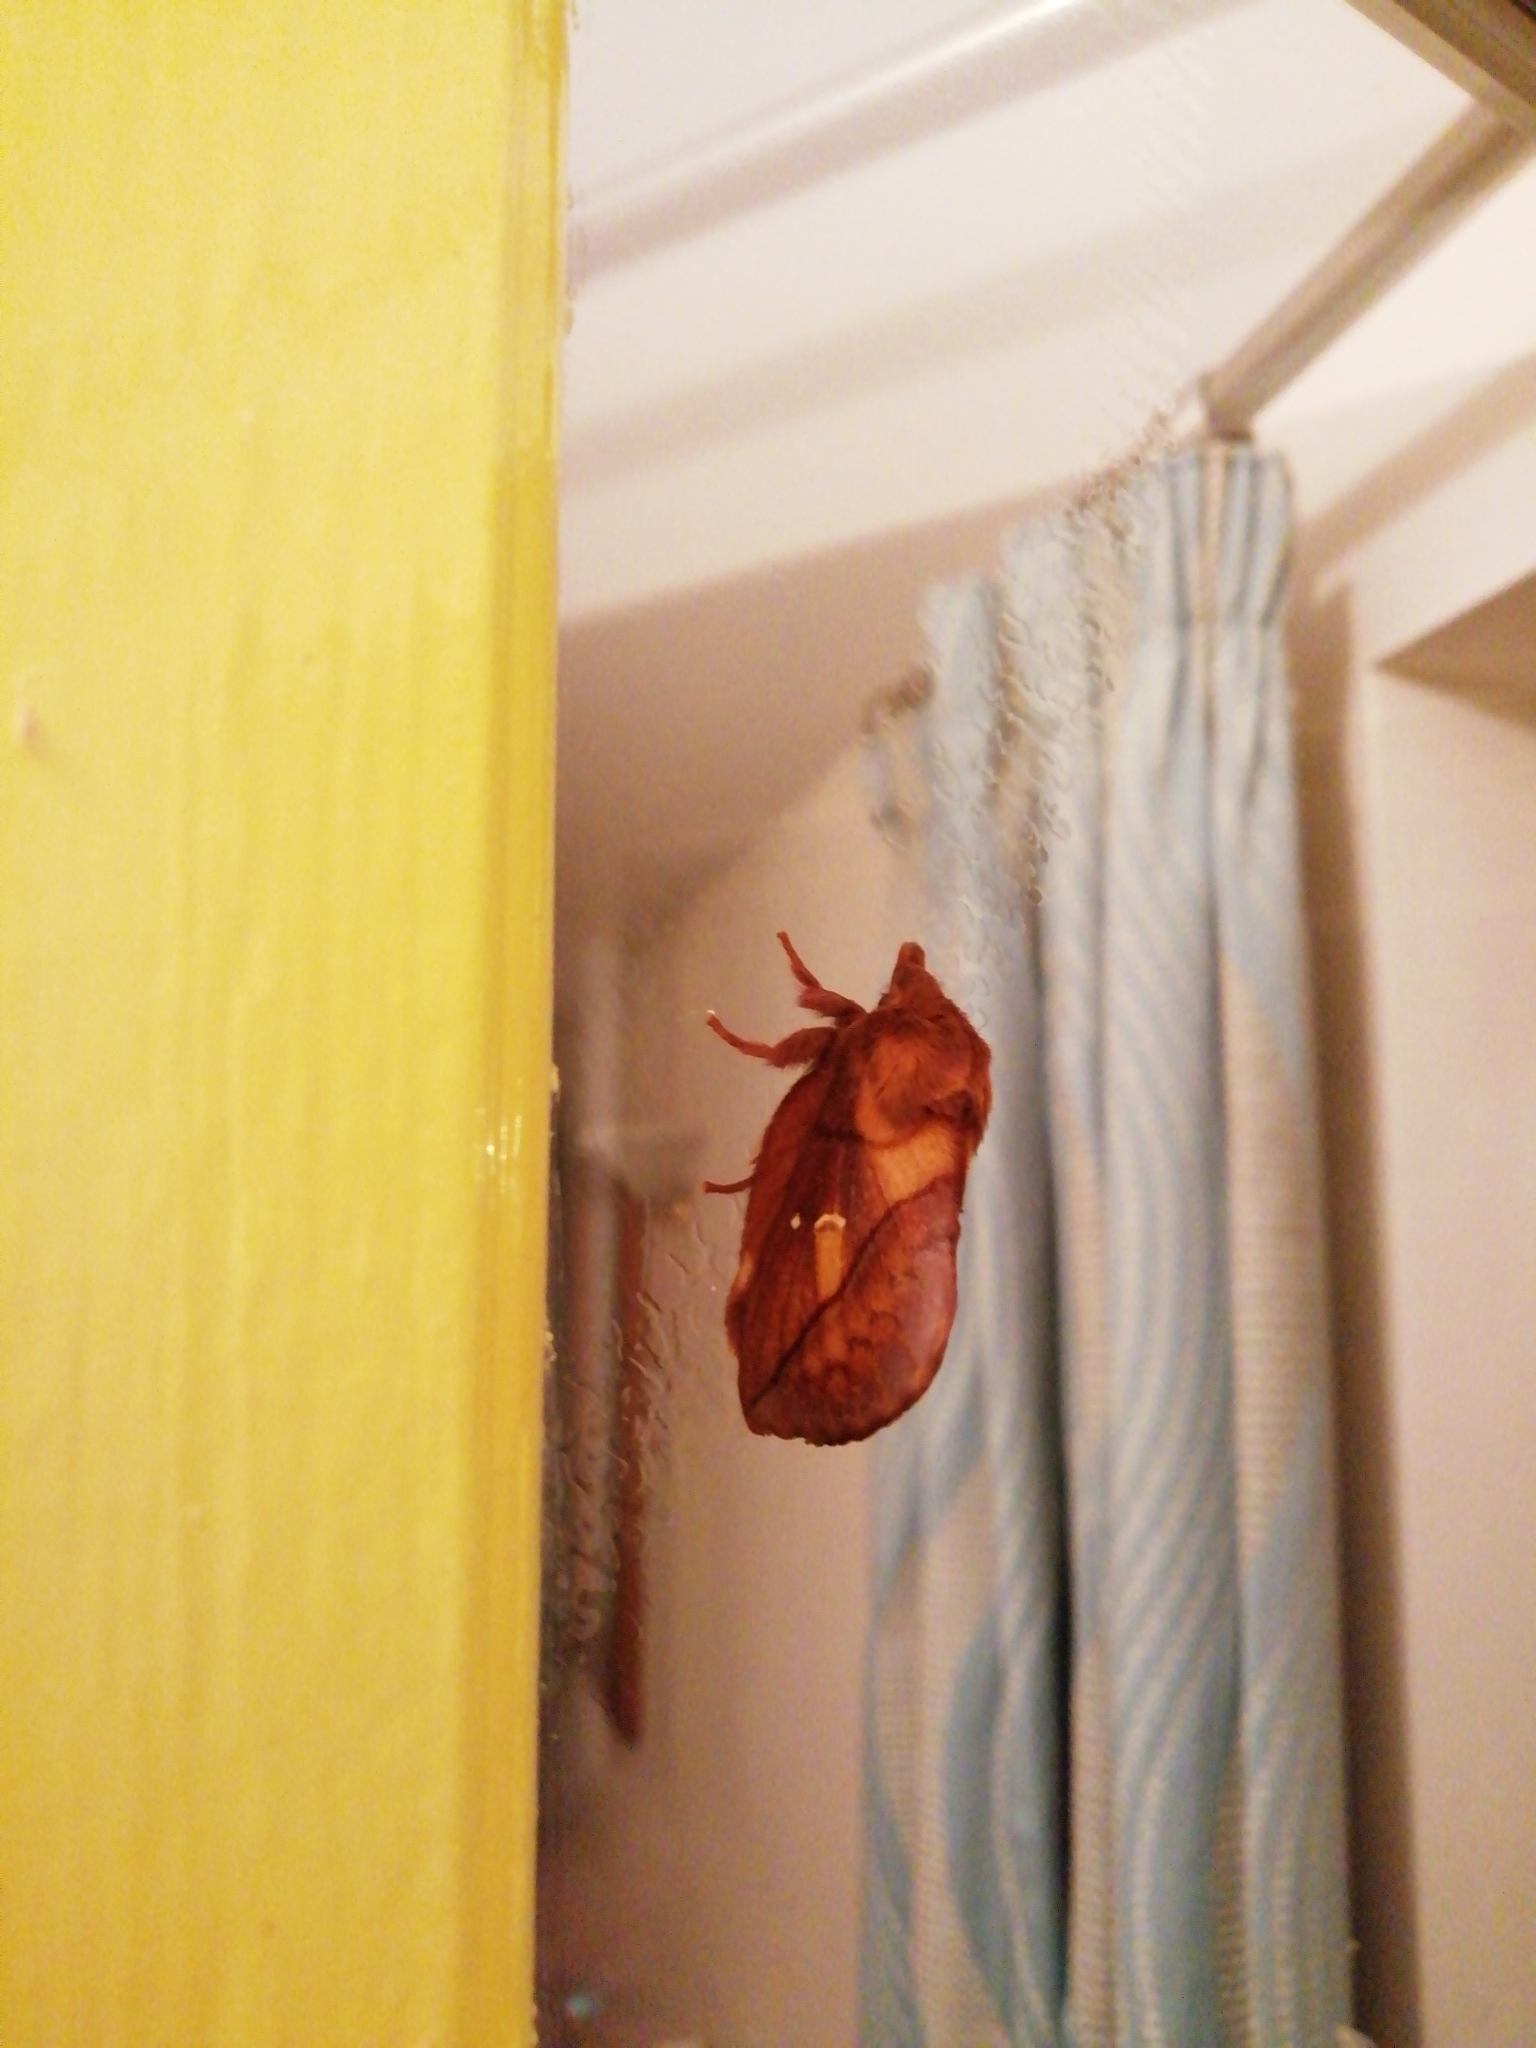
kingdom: Animalia
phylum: Arthropoda
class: Insecta
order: Lepidoptera
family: Lasiocampidae
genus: Euthrix
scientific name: Euthrix potatoria
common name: Drinker
